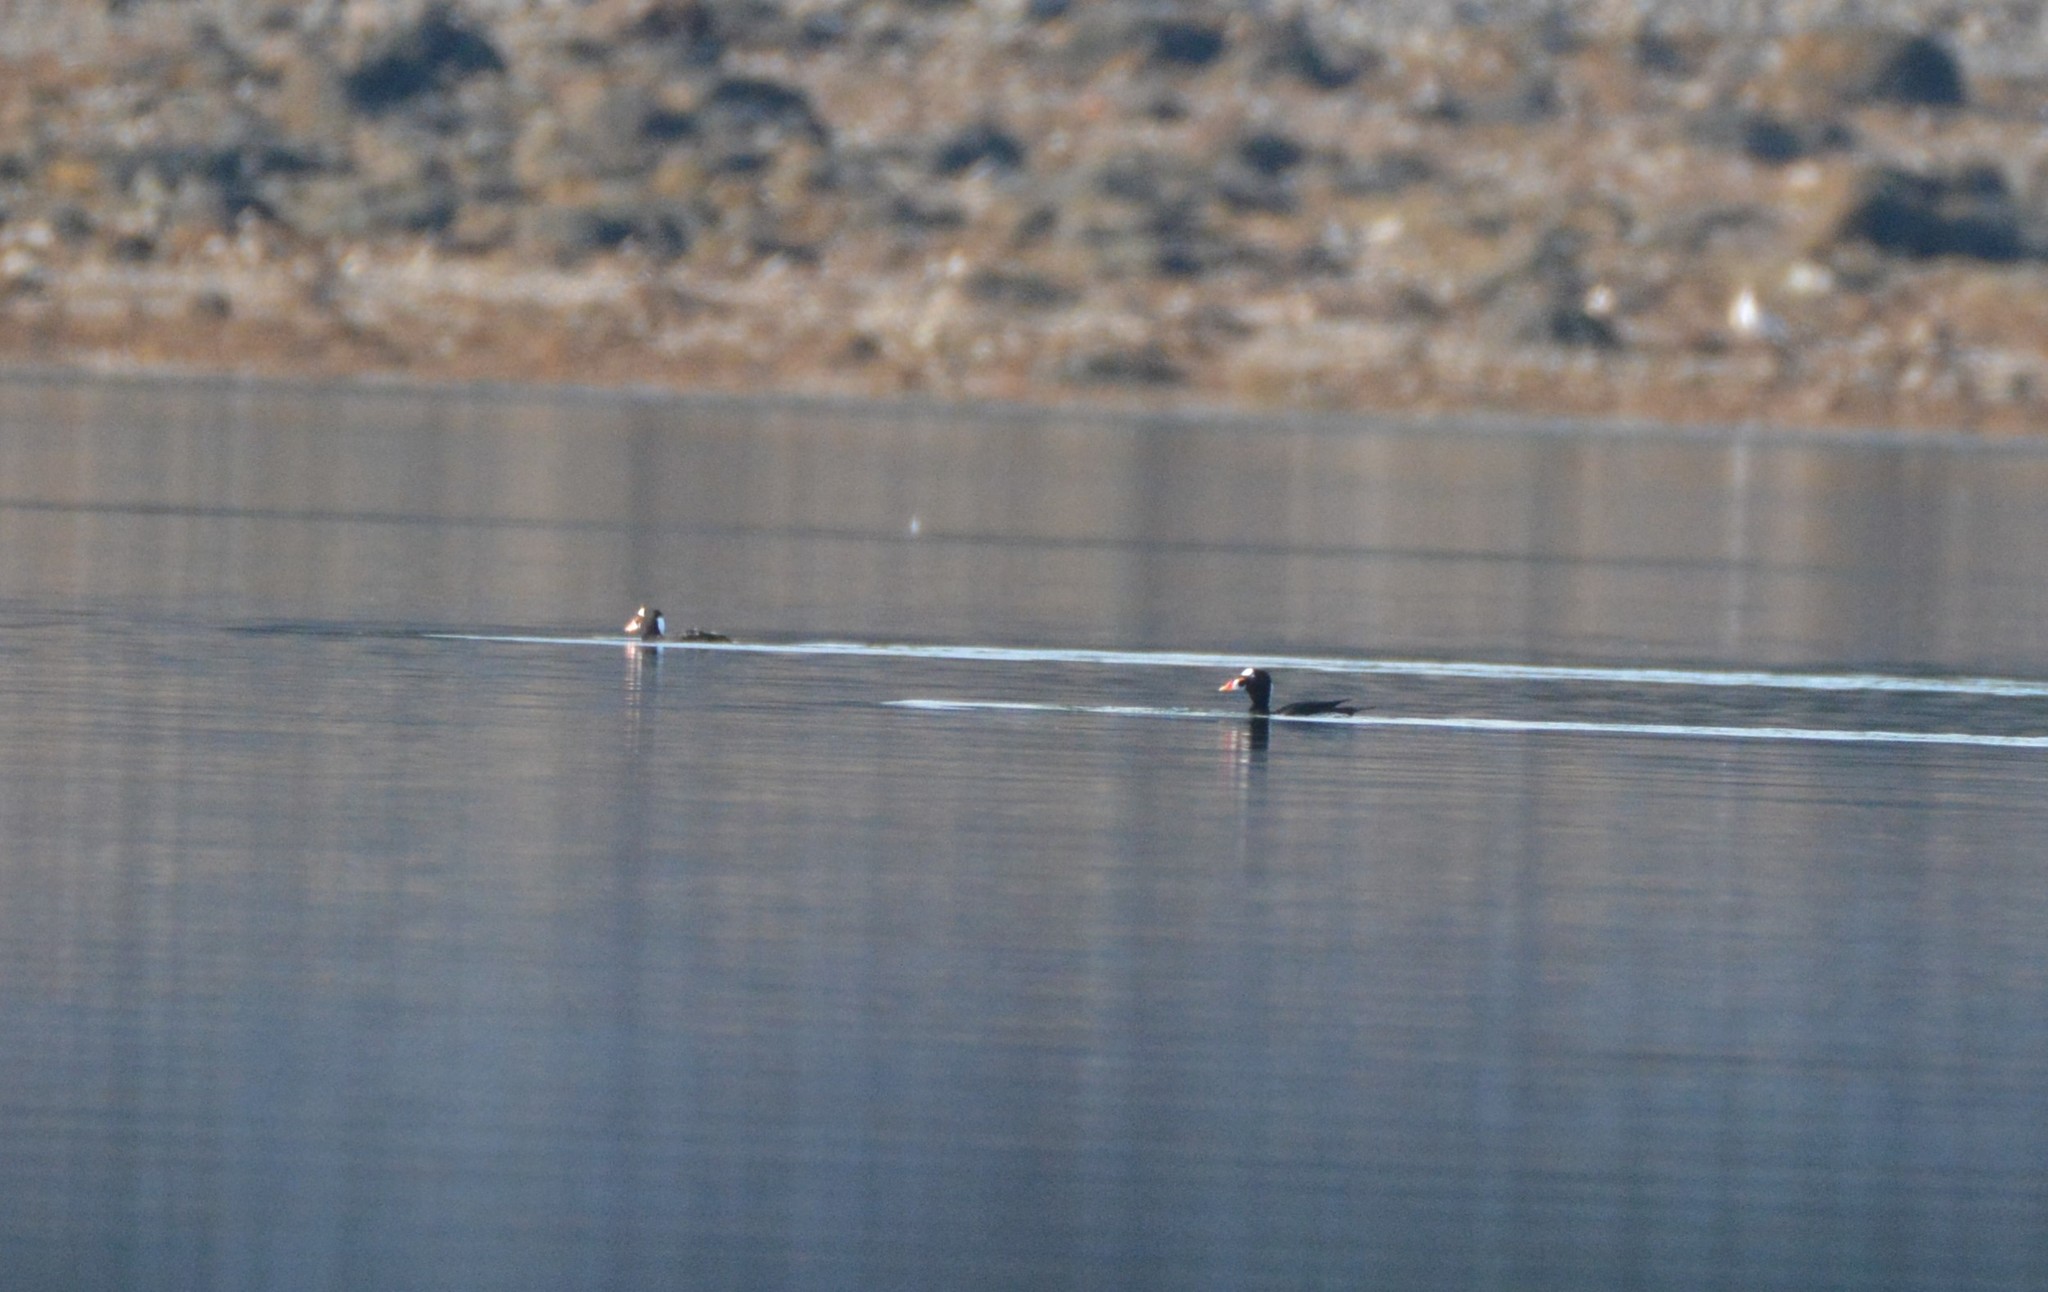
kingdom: Animalia
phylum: Chordata
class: Aves
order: Anseriformes
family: Anatidae
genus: Melanitta
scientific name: Melanitta perspicillata
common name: Surf scoter
